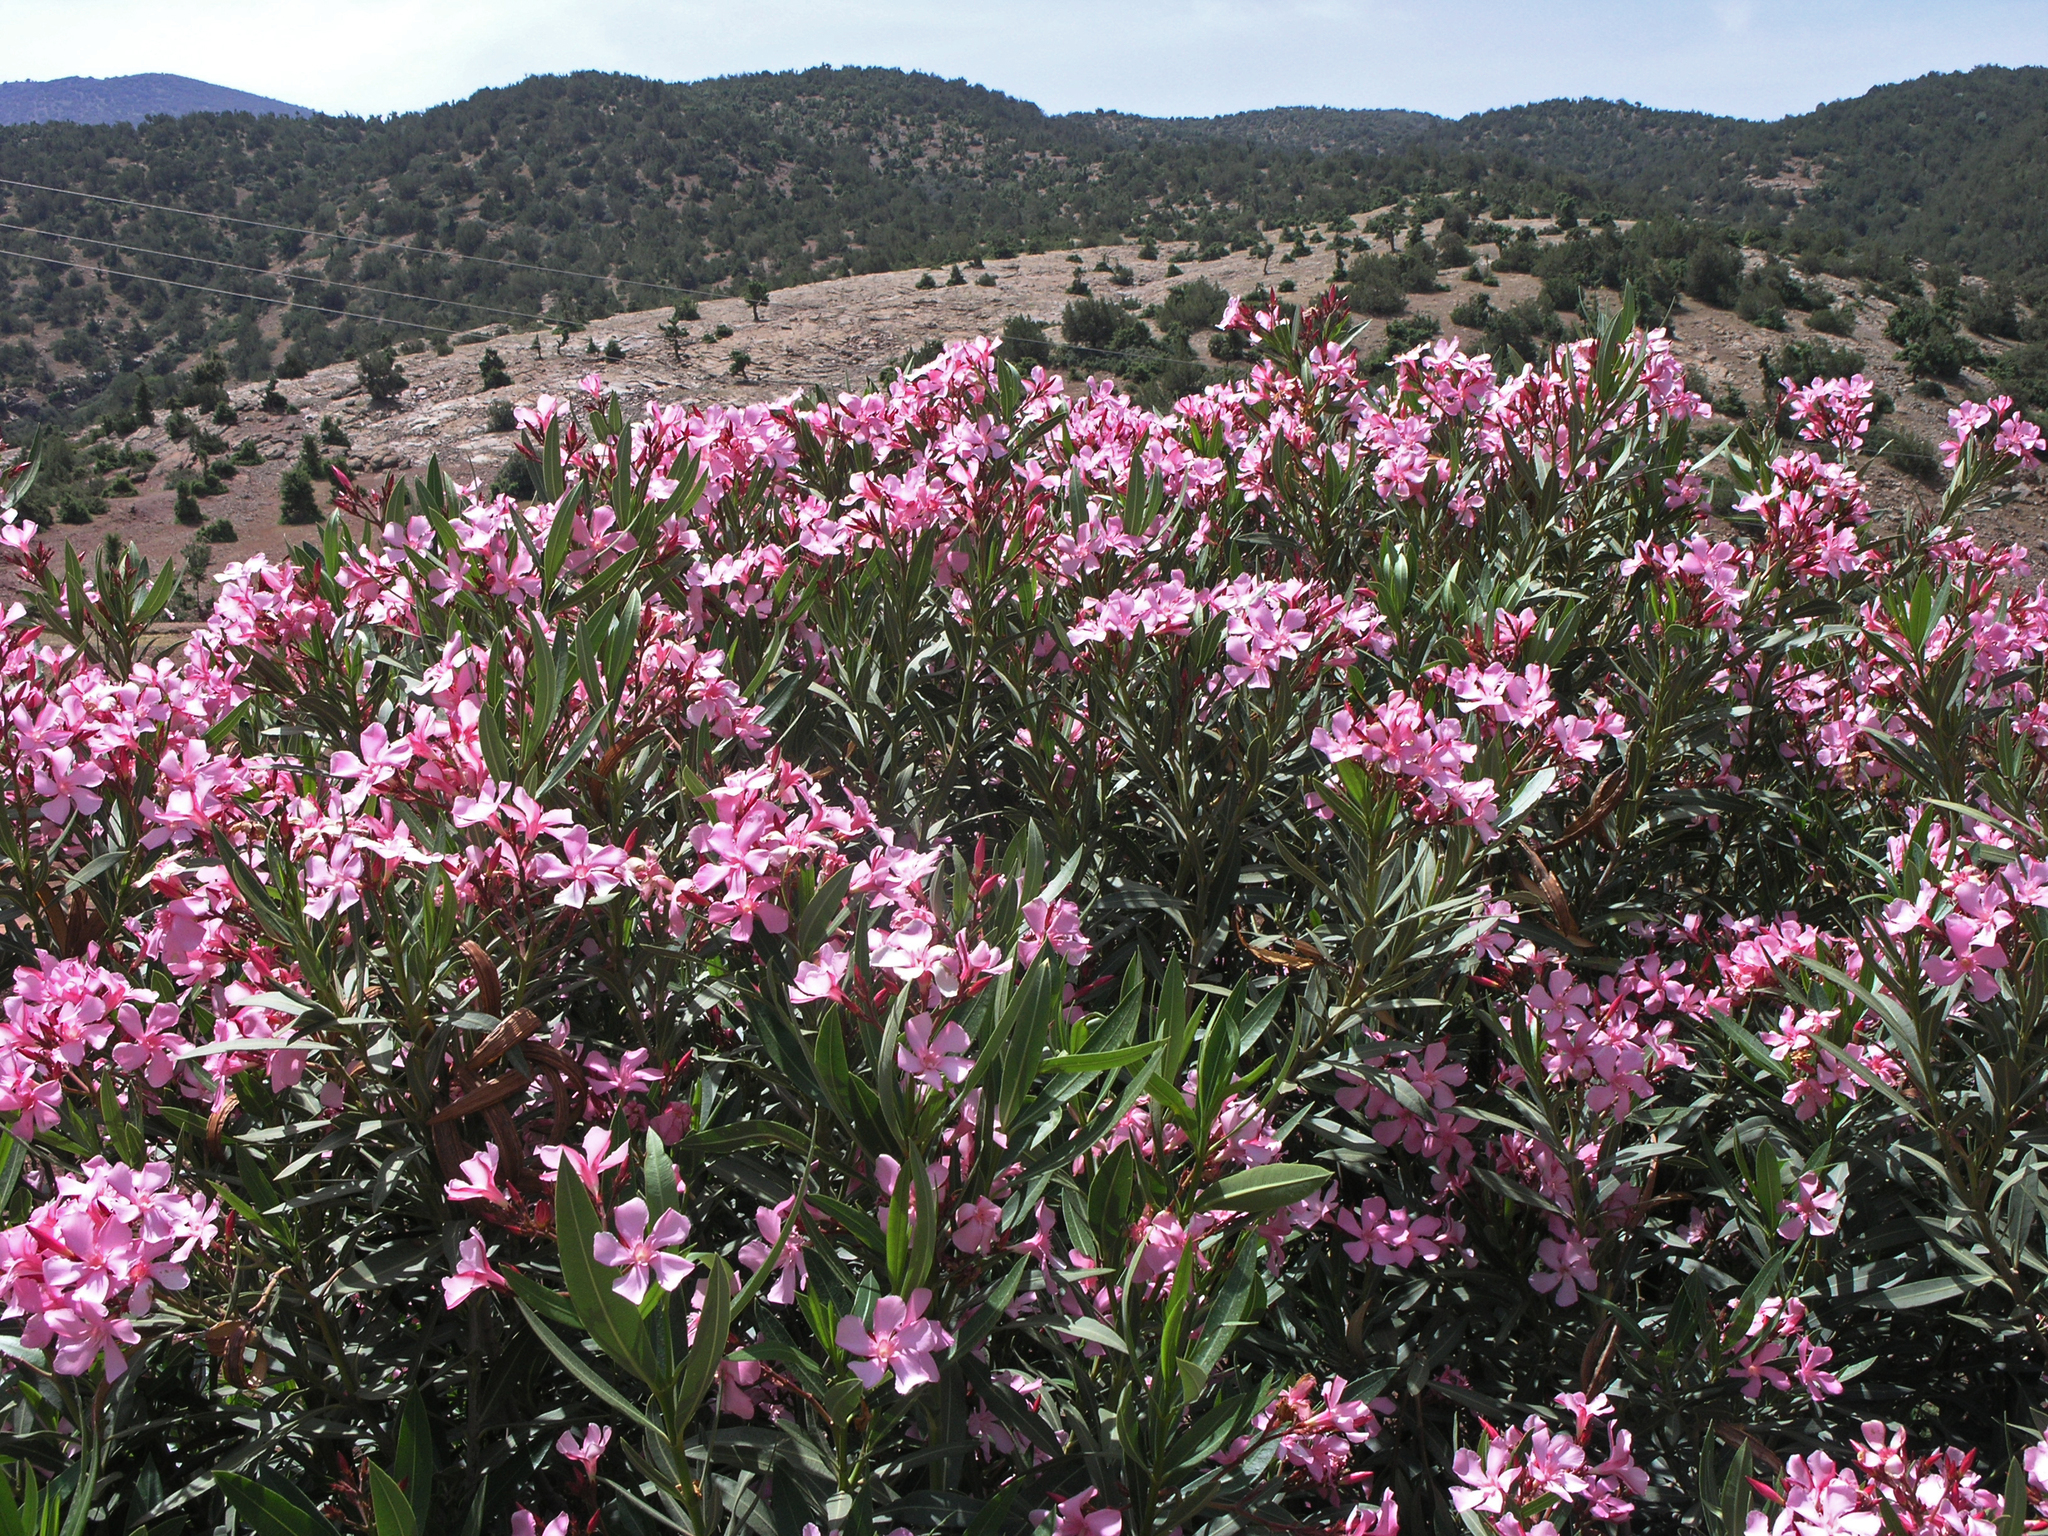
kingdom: Plantae
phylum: Tracheophyta
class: Magnoliopsida
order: Gentianales
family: Apocynaceae
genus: Nerium
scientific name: Nerium oleander
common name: Oleander
